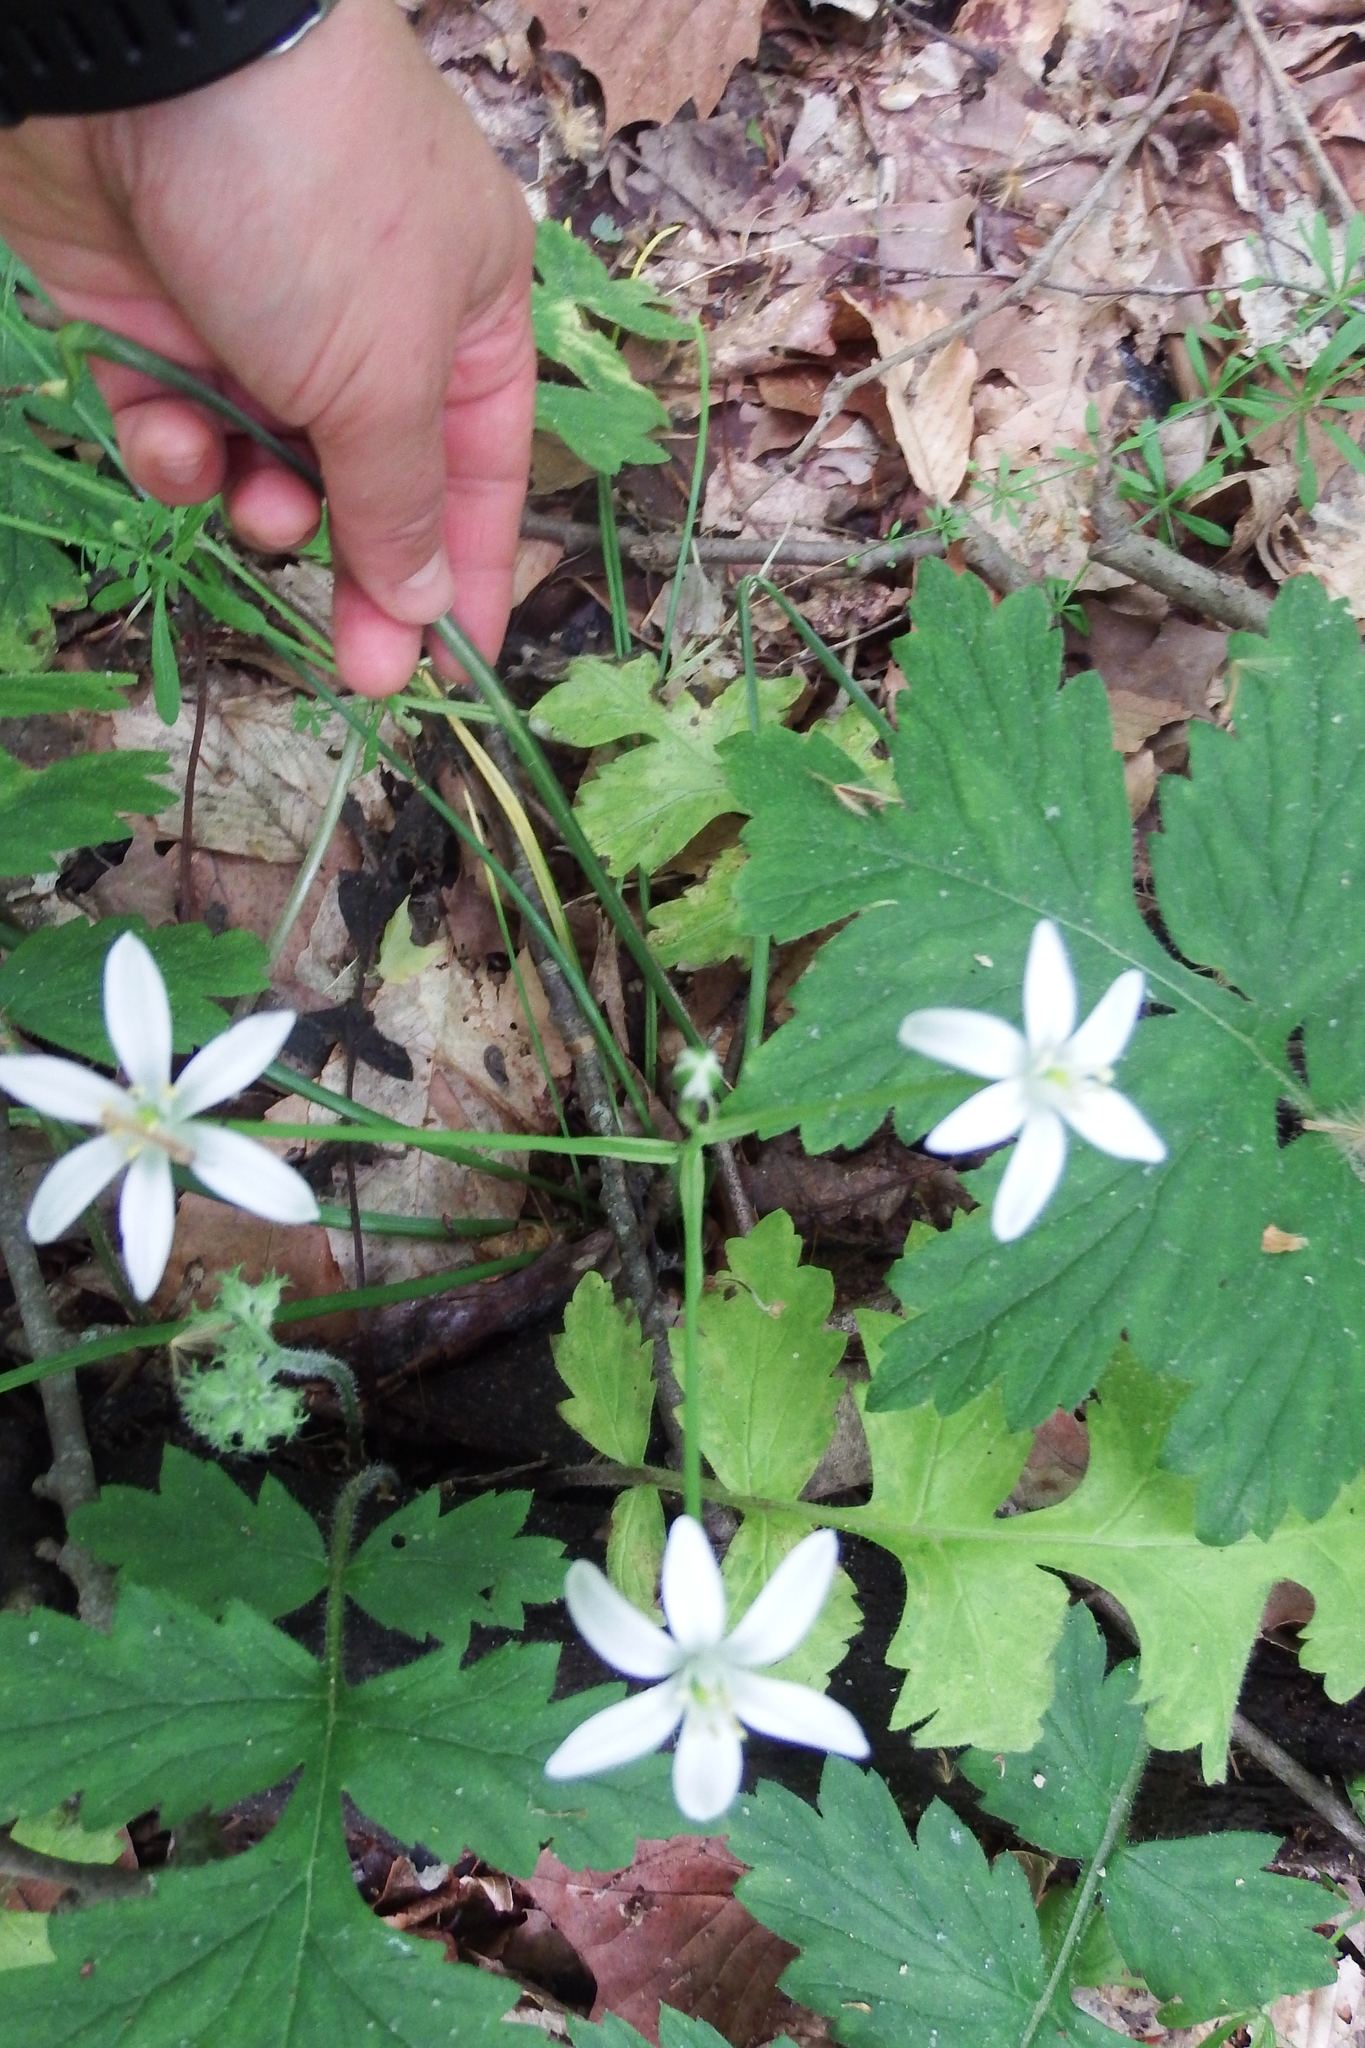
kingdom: Plantae
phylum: Tracheophyta
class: Liliopsida
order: Asparagales
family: Asparagaceae
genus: Ornithogalum
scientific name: Ornithogalum umbellatum
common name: Garden star-of-bethlehem
